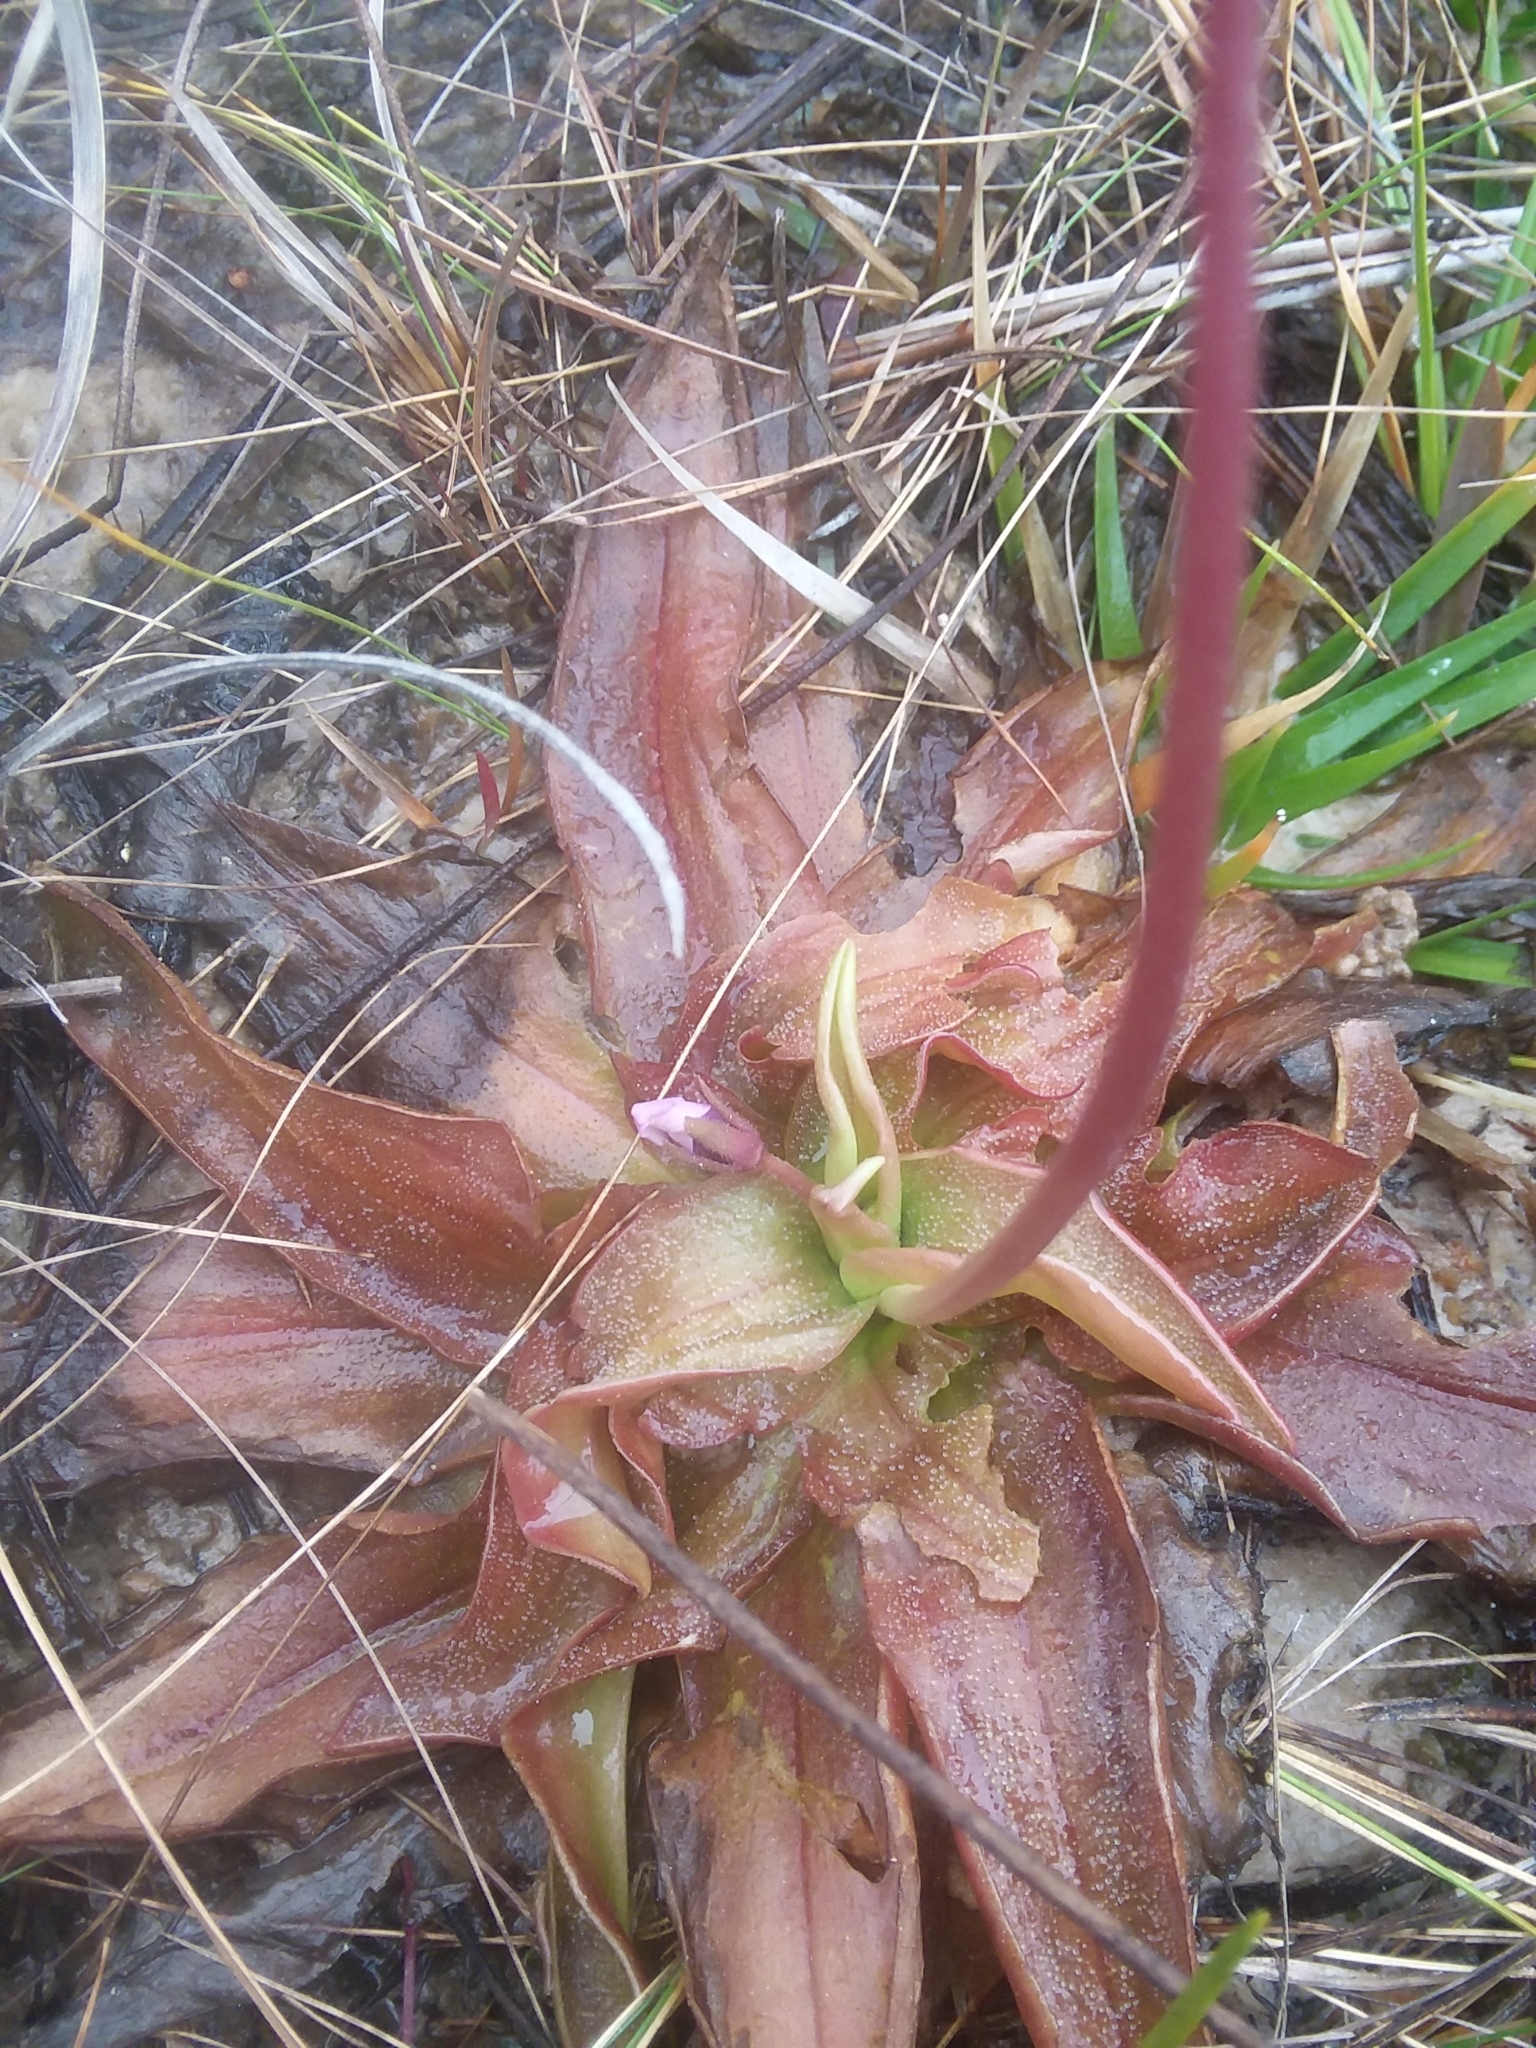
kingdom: Plantae
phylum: Tracheophyta
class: Magnoliopsida
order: Lamiales
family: Lentibulariaceae
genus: Pinguicula
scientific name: Pinguicula planifolia
